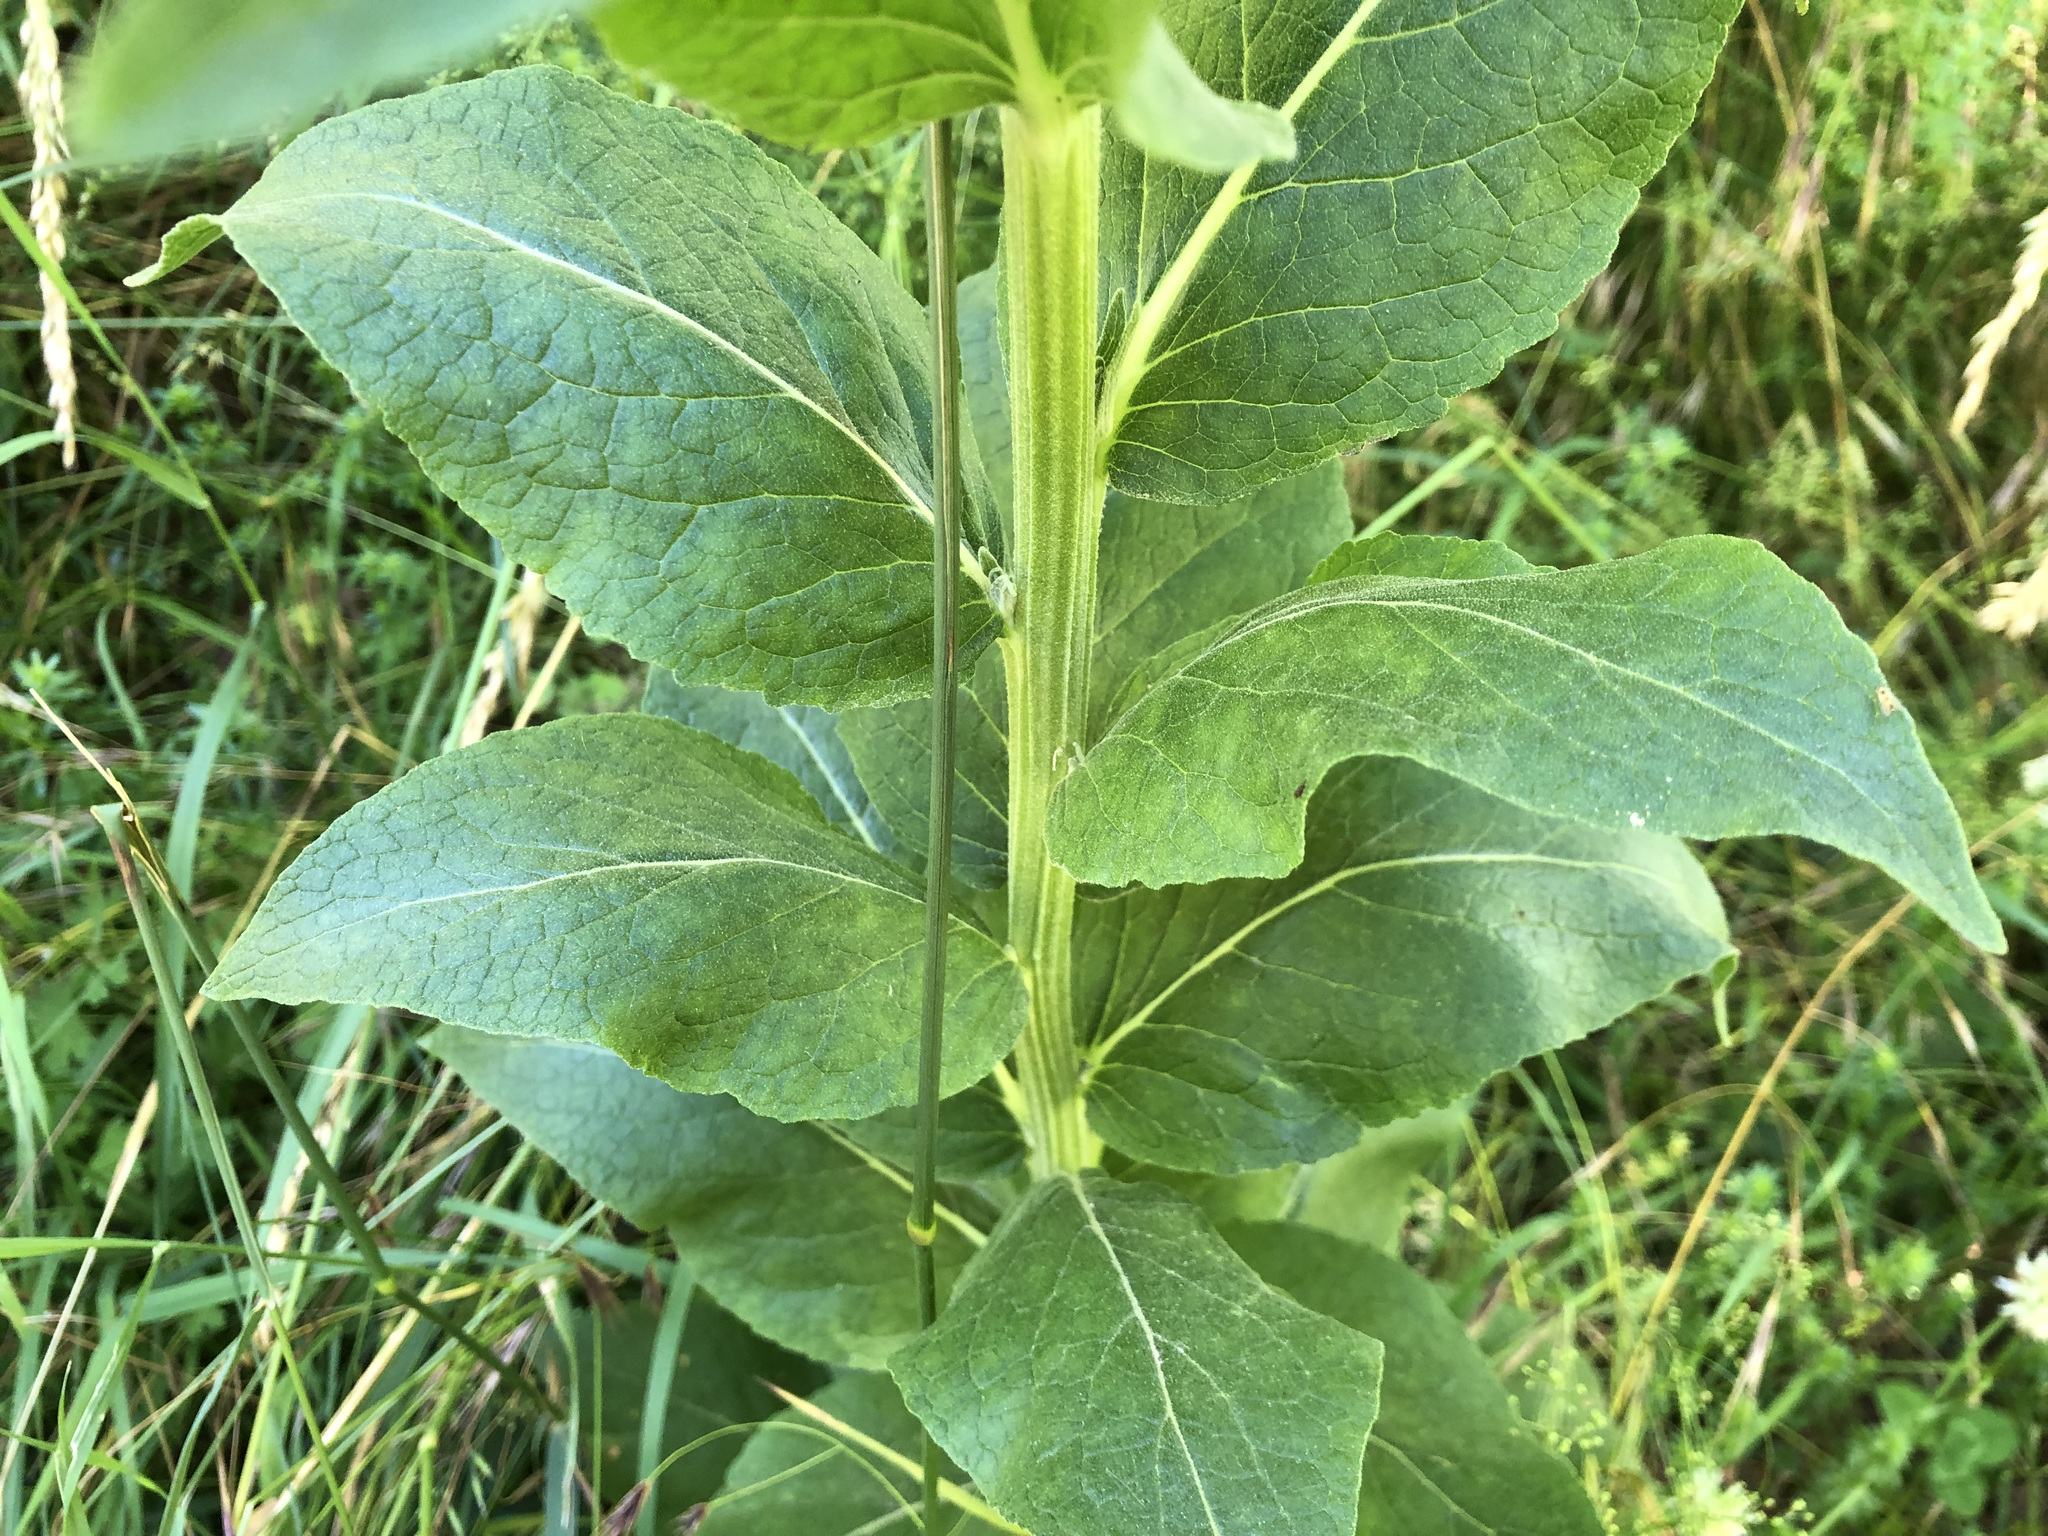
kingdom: Plantae
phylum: Tracheophyta
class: Magnoliopsida
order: Lamiales
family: Scrophulariaceae
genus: Verbascum
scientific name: Verbascum lychnitis
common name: White mullein
